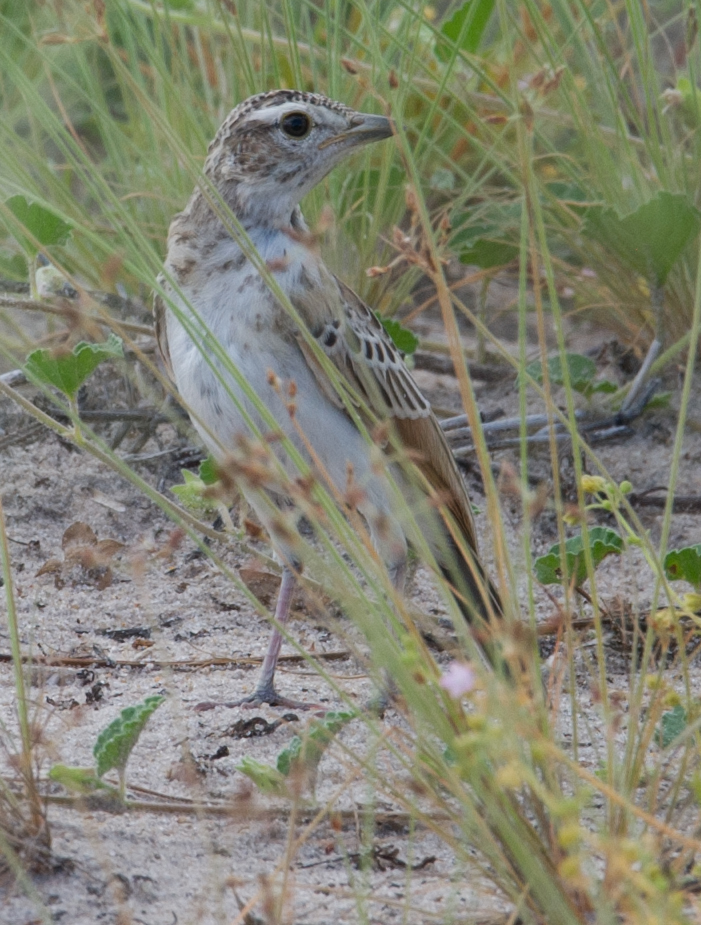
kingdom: Animalia
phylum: Chordata
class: Aves
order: Passeriformes
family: Alaudidae
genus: Mirafra
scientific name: Mirafra africana
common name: Rufous-naped lark
